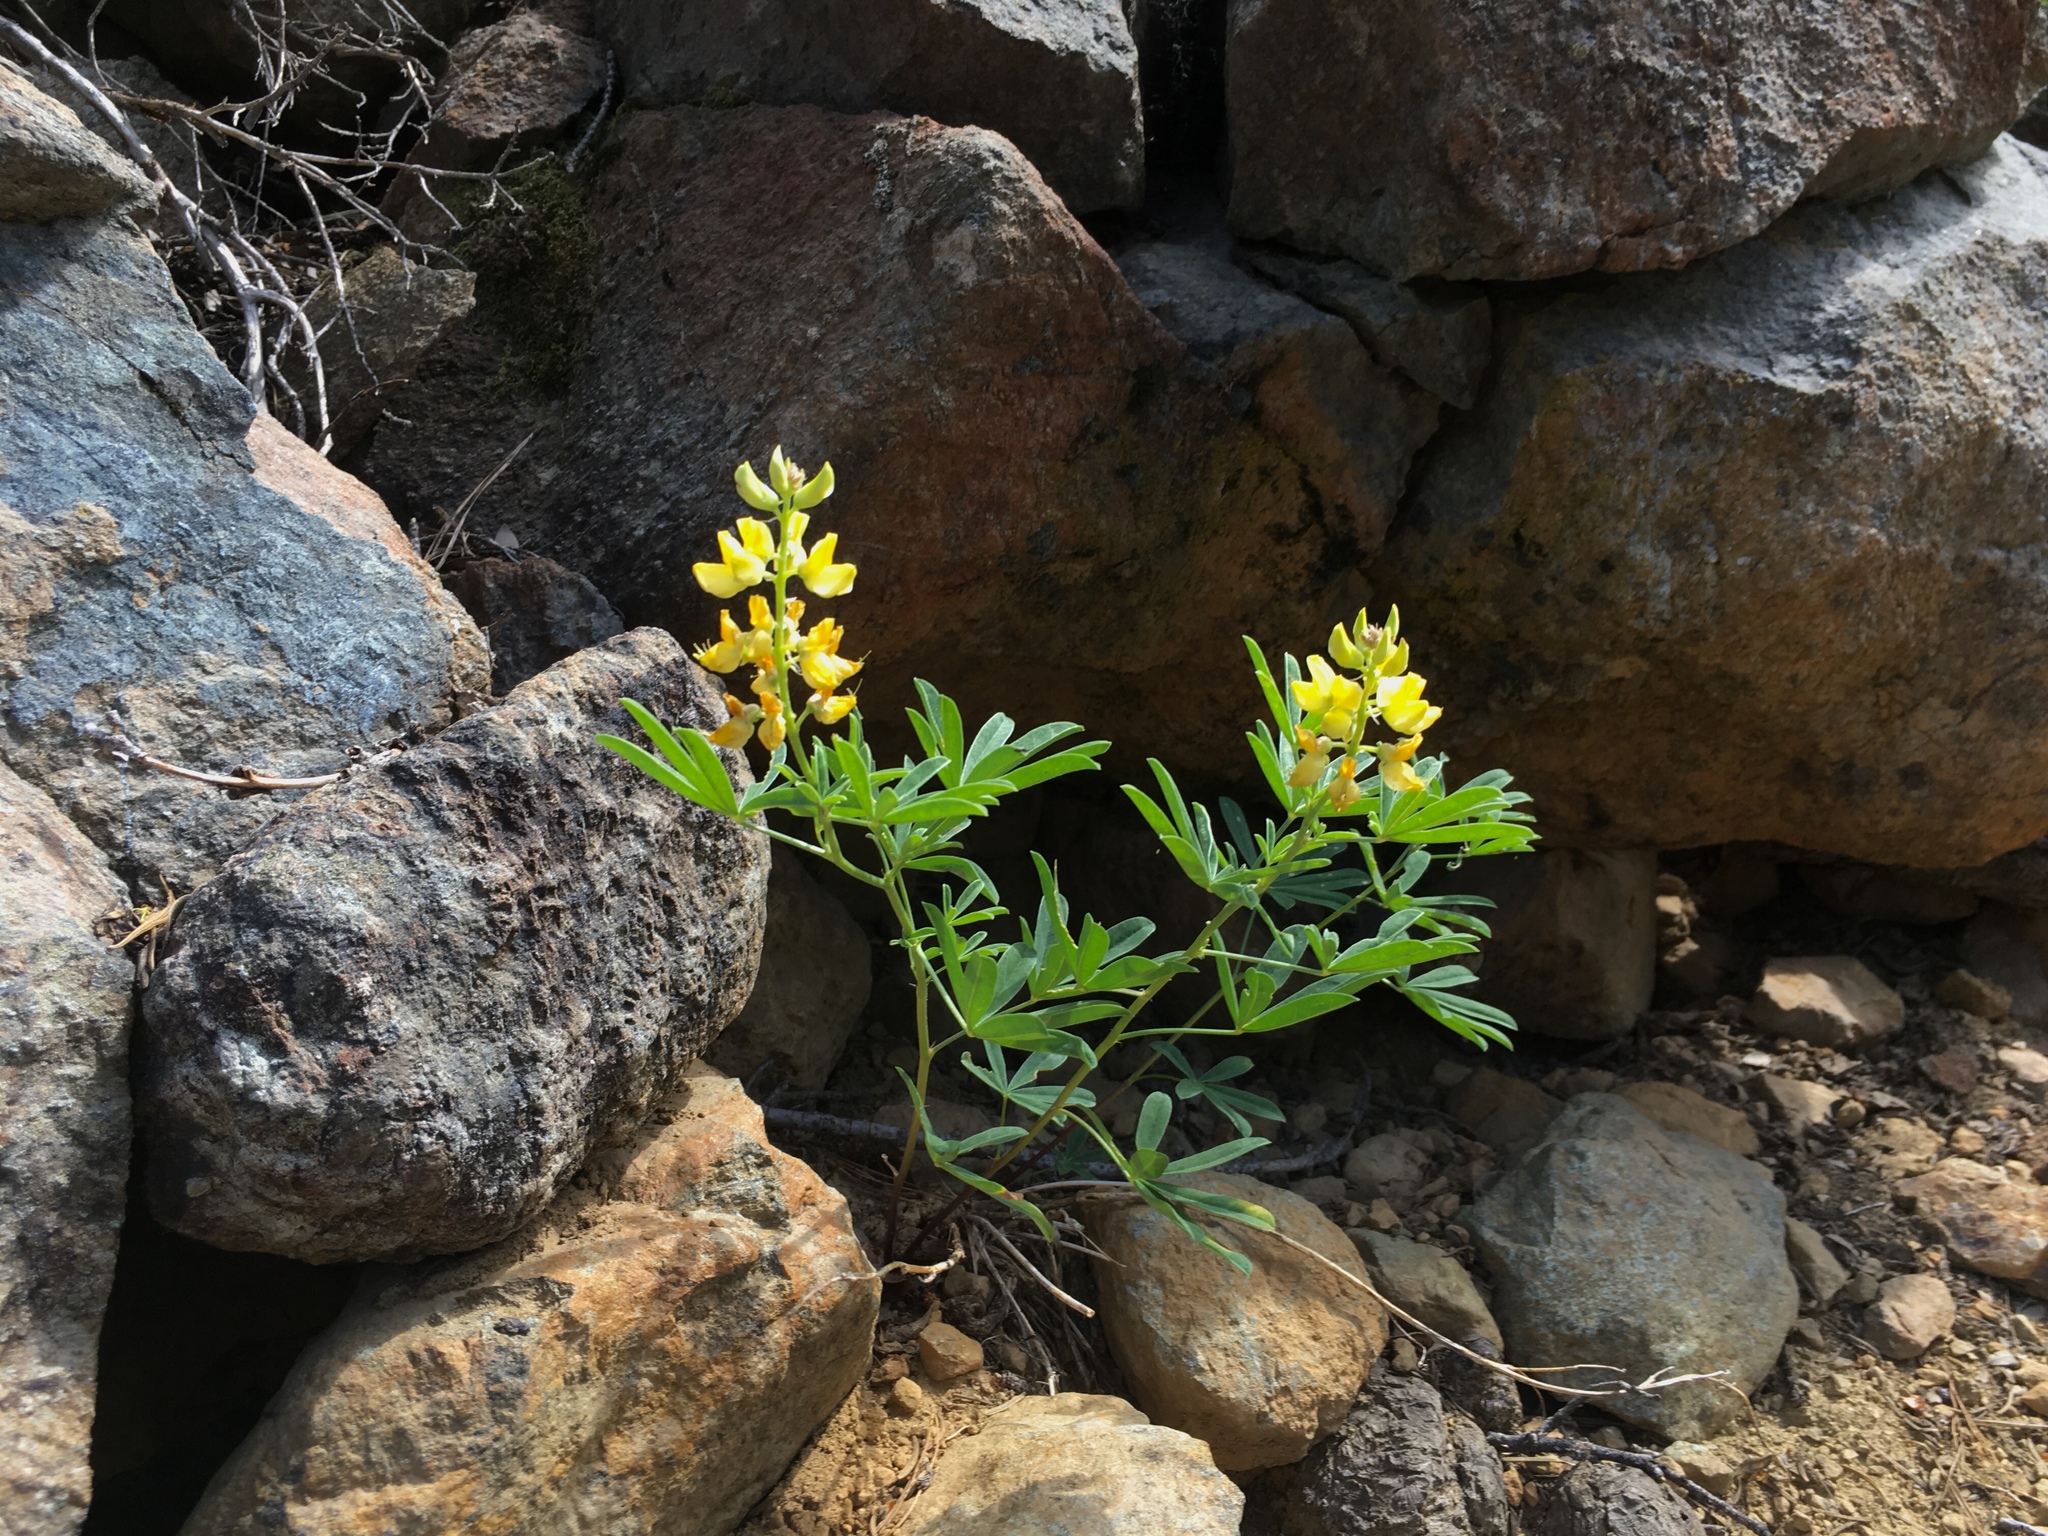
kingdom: Plantae
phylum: Tracheophyta
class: Magnoliopsida
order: Fabales
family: Fabaceae
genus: Lupinus
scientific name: Lupinus croceus
